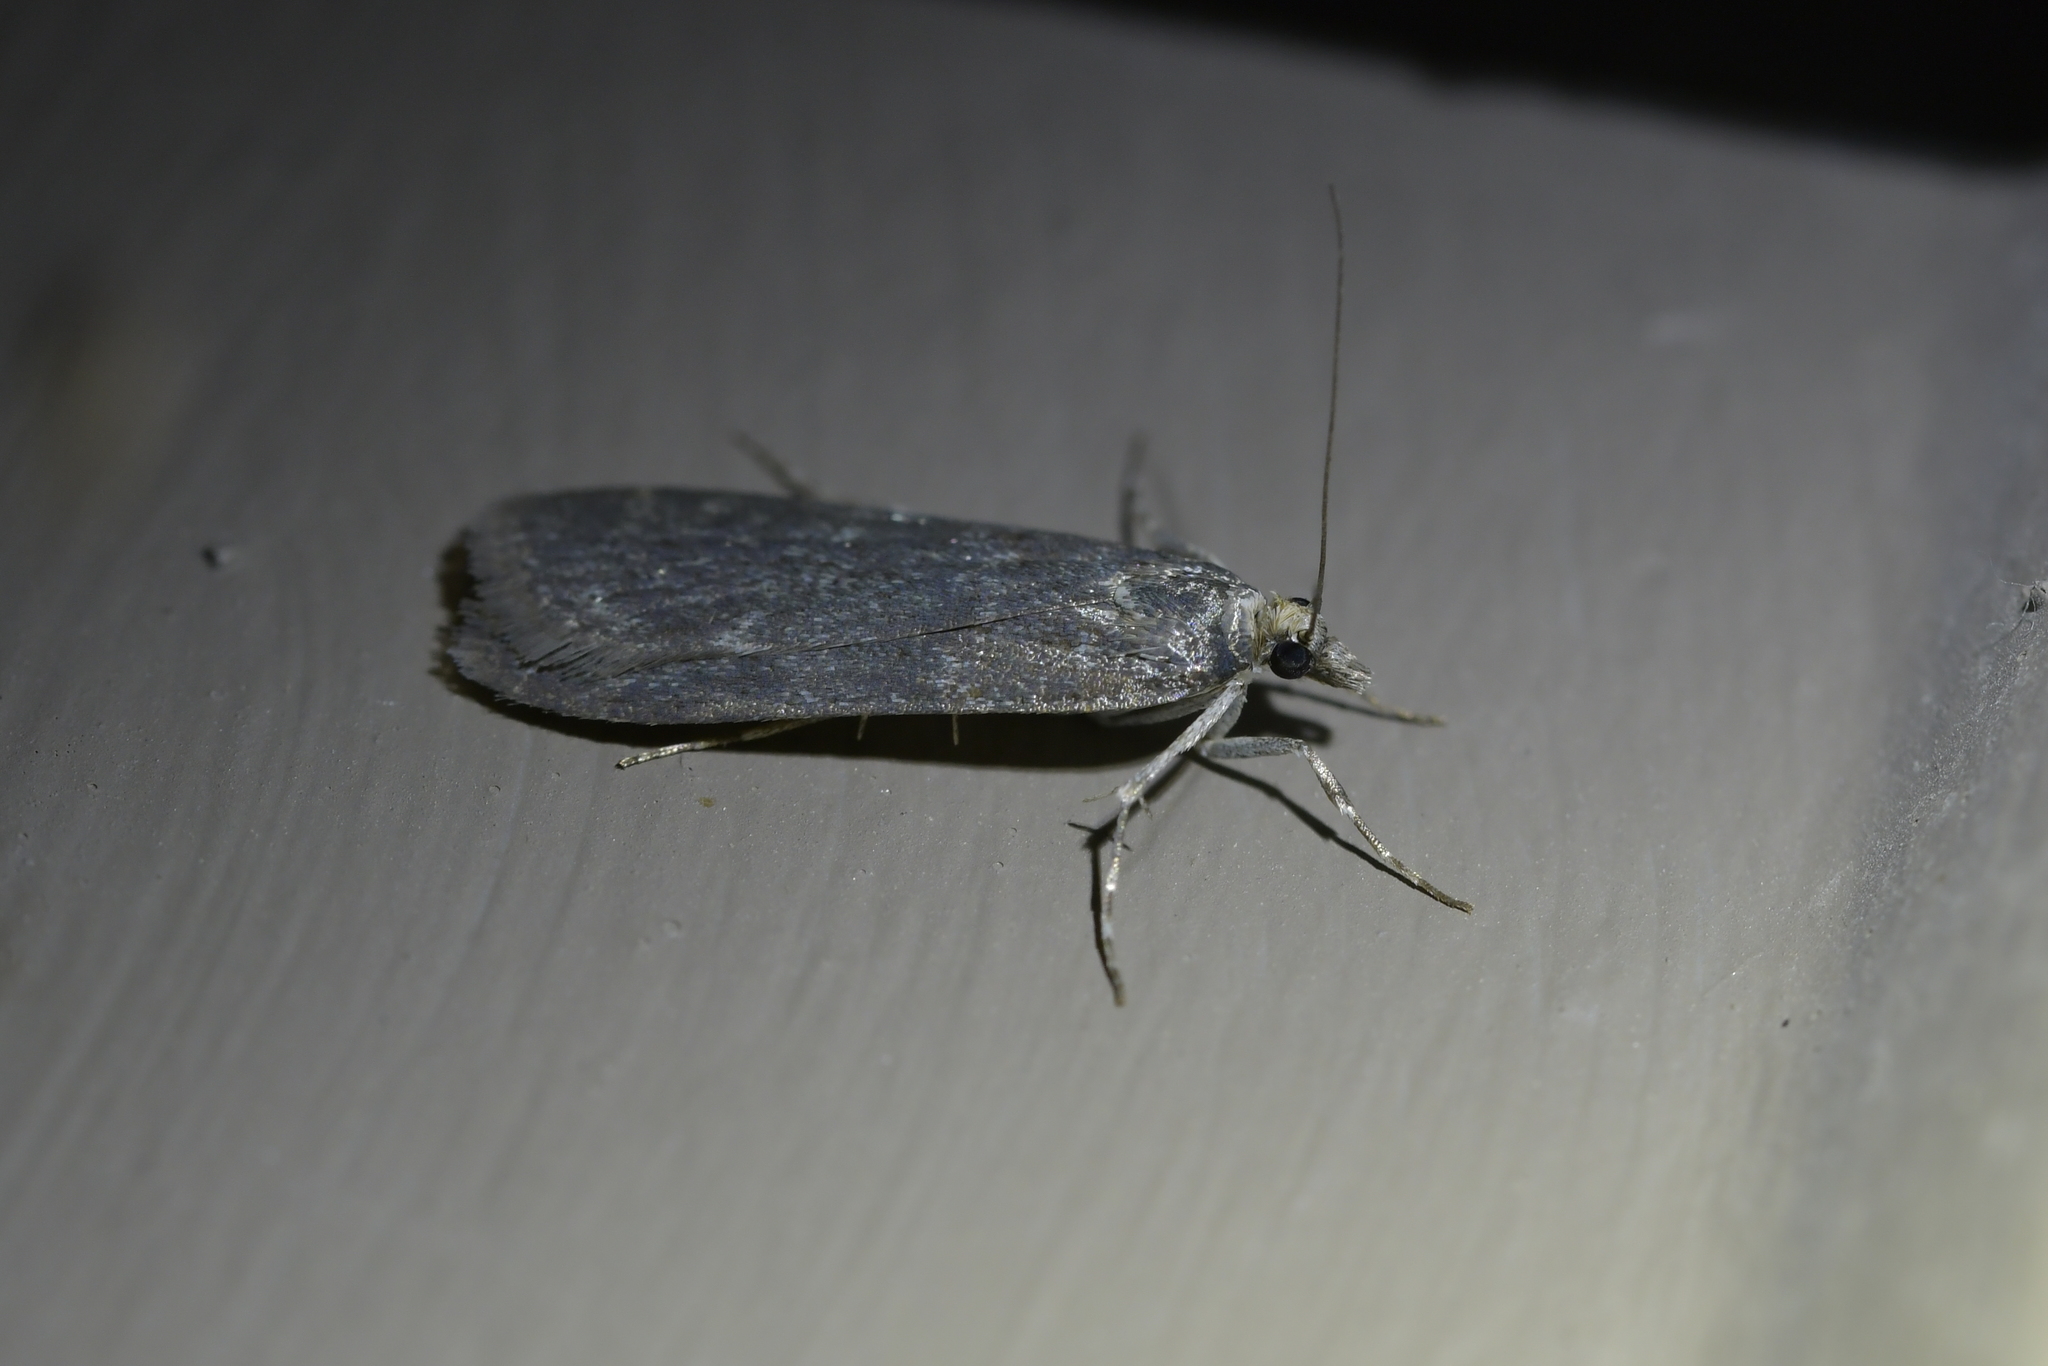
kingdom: Animalia
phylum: Arthropoda
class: Insecta
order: Lepidoptera
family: Crambidae
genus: Eudonia
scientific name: Eudonia cataxesta
